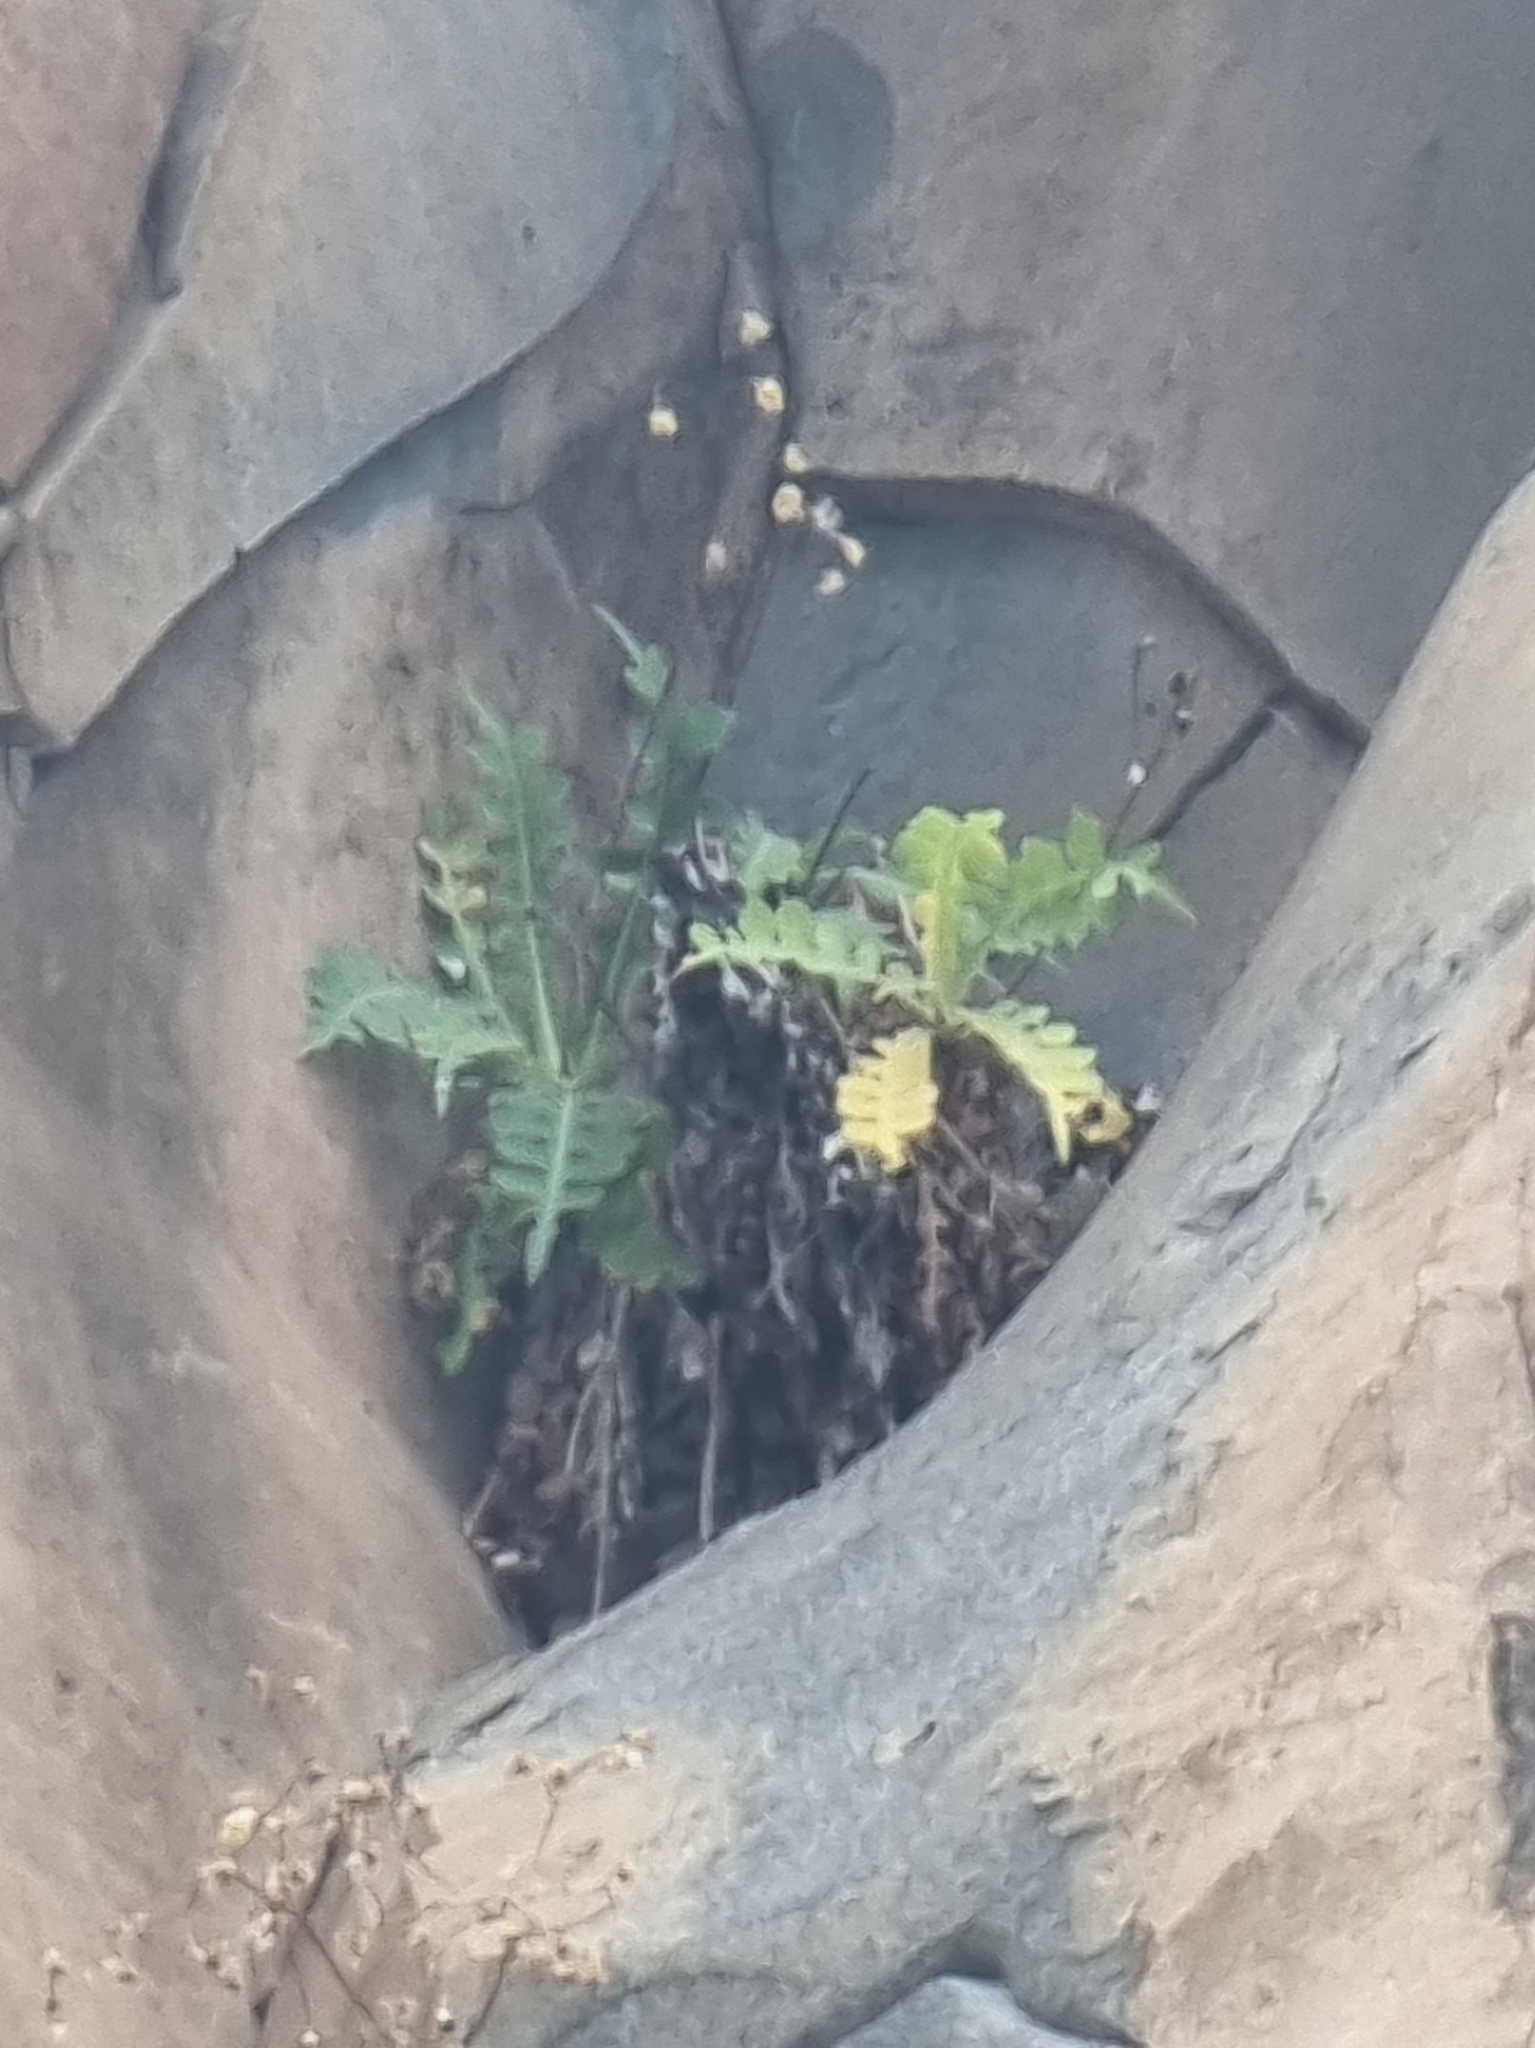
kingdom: Plantae
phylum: Tracheophyta
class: Magnoliopsida
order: Asterales
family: Asteraceae
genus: Sonchus
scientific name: Sonchus latifolius
